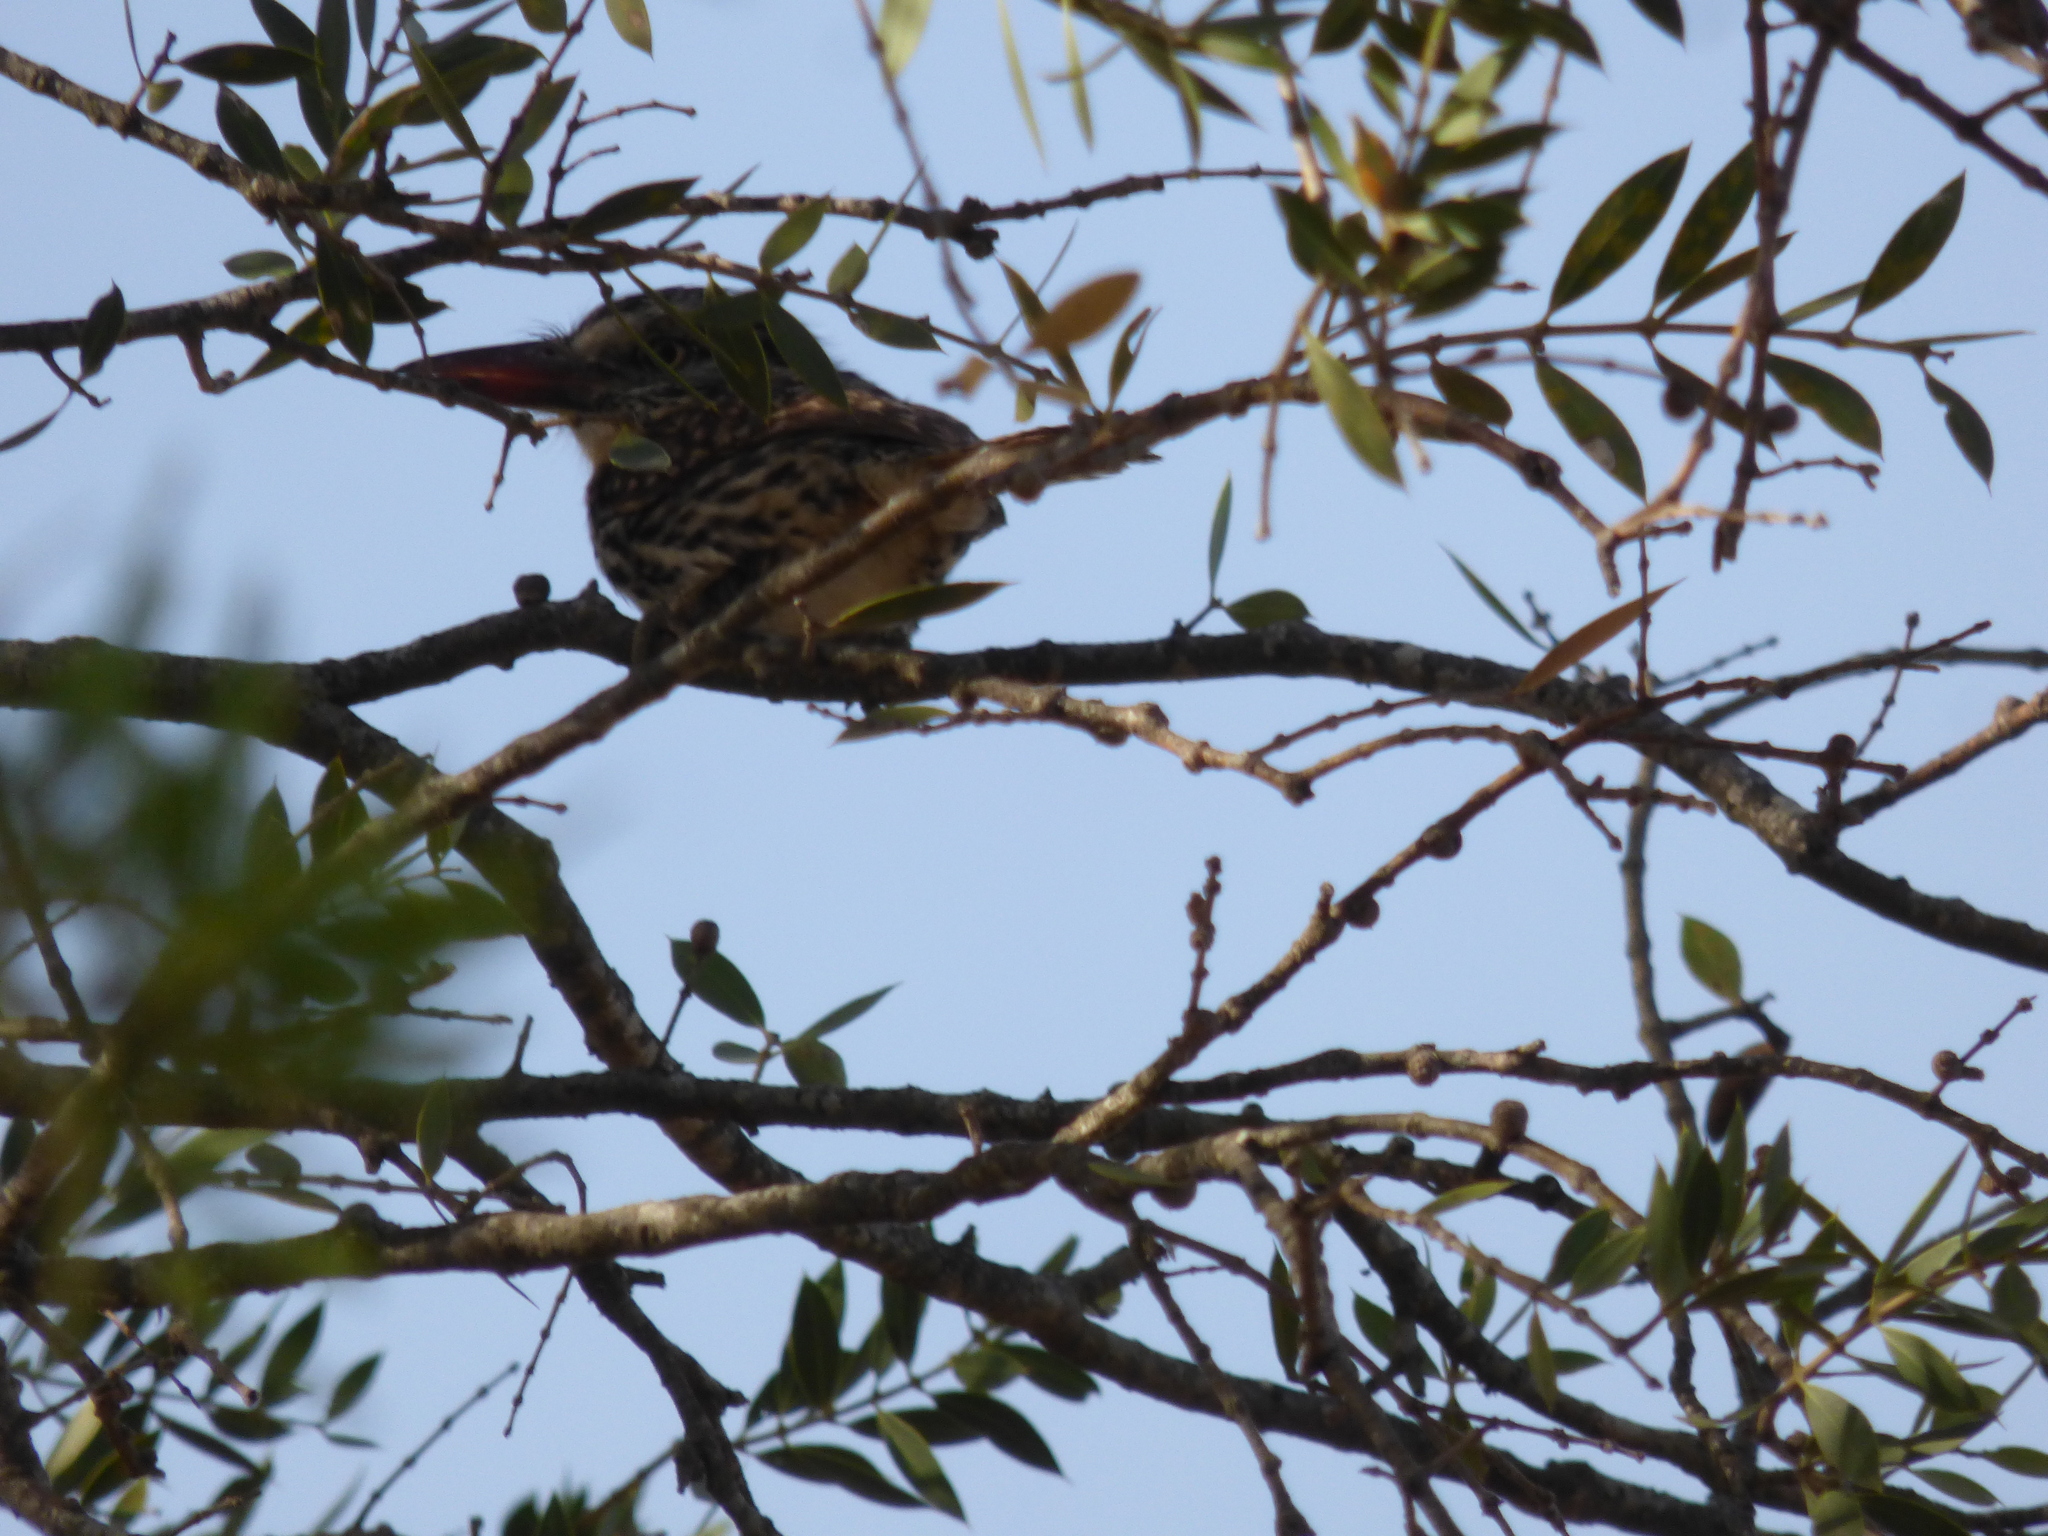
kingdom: Animalia
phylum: Chordata
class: Aves
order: Piciformes
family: Bucconidae
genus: Nystalus
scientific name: Nystalus maculatus
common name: Caatinga puffbird
